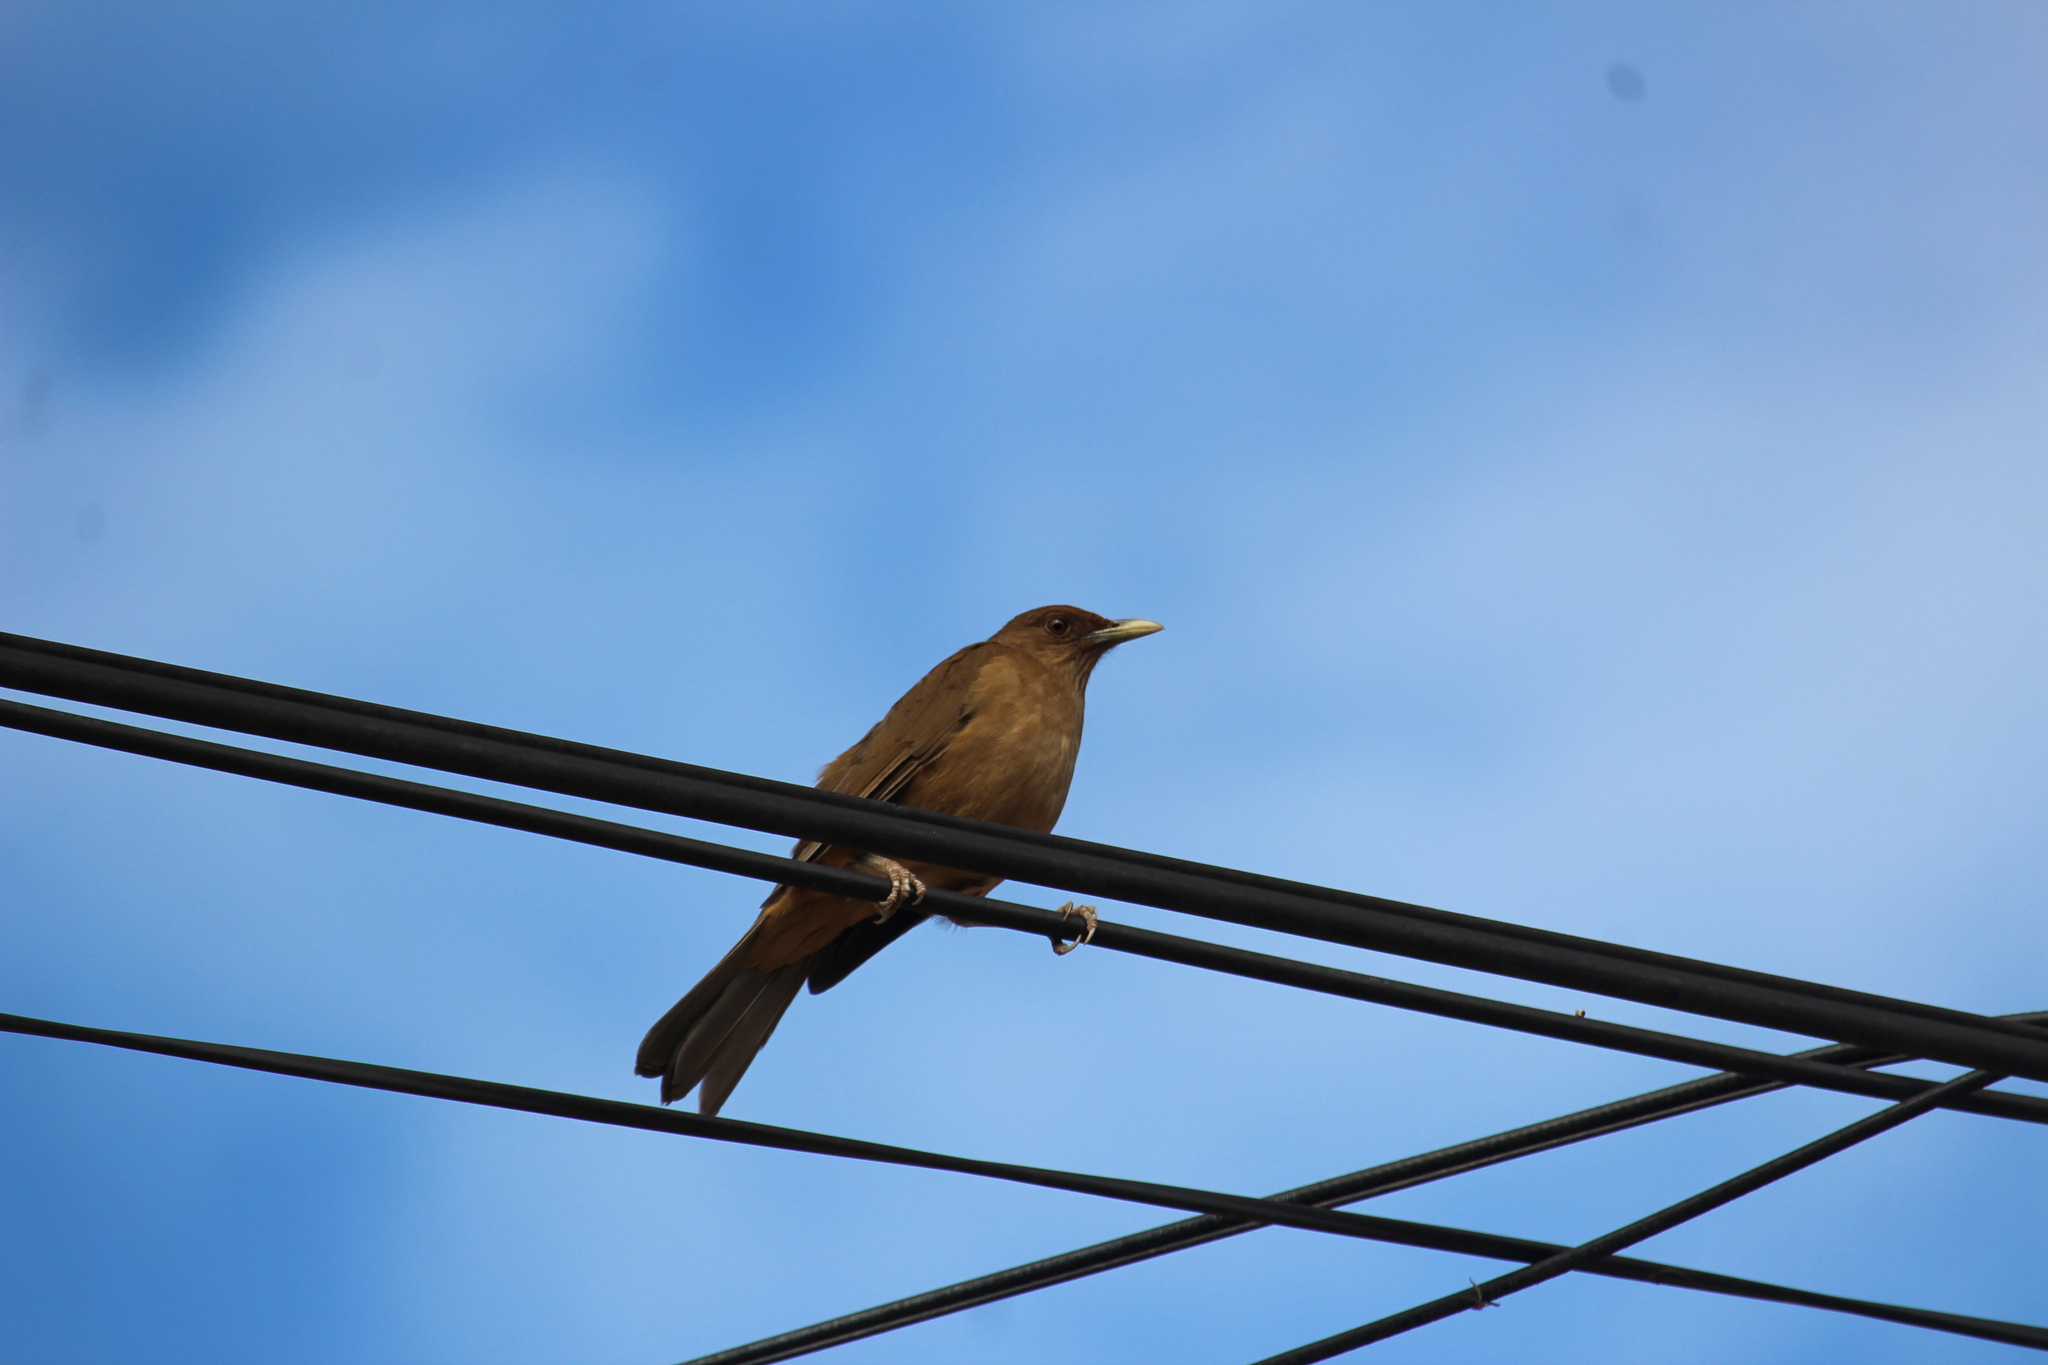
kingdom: Animalia
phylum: Chordata
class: Aves
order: Passeriformes
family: Turdidae
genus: Turdus
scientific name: Turdus grayi
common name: Clay-colored thrush
